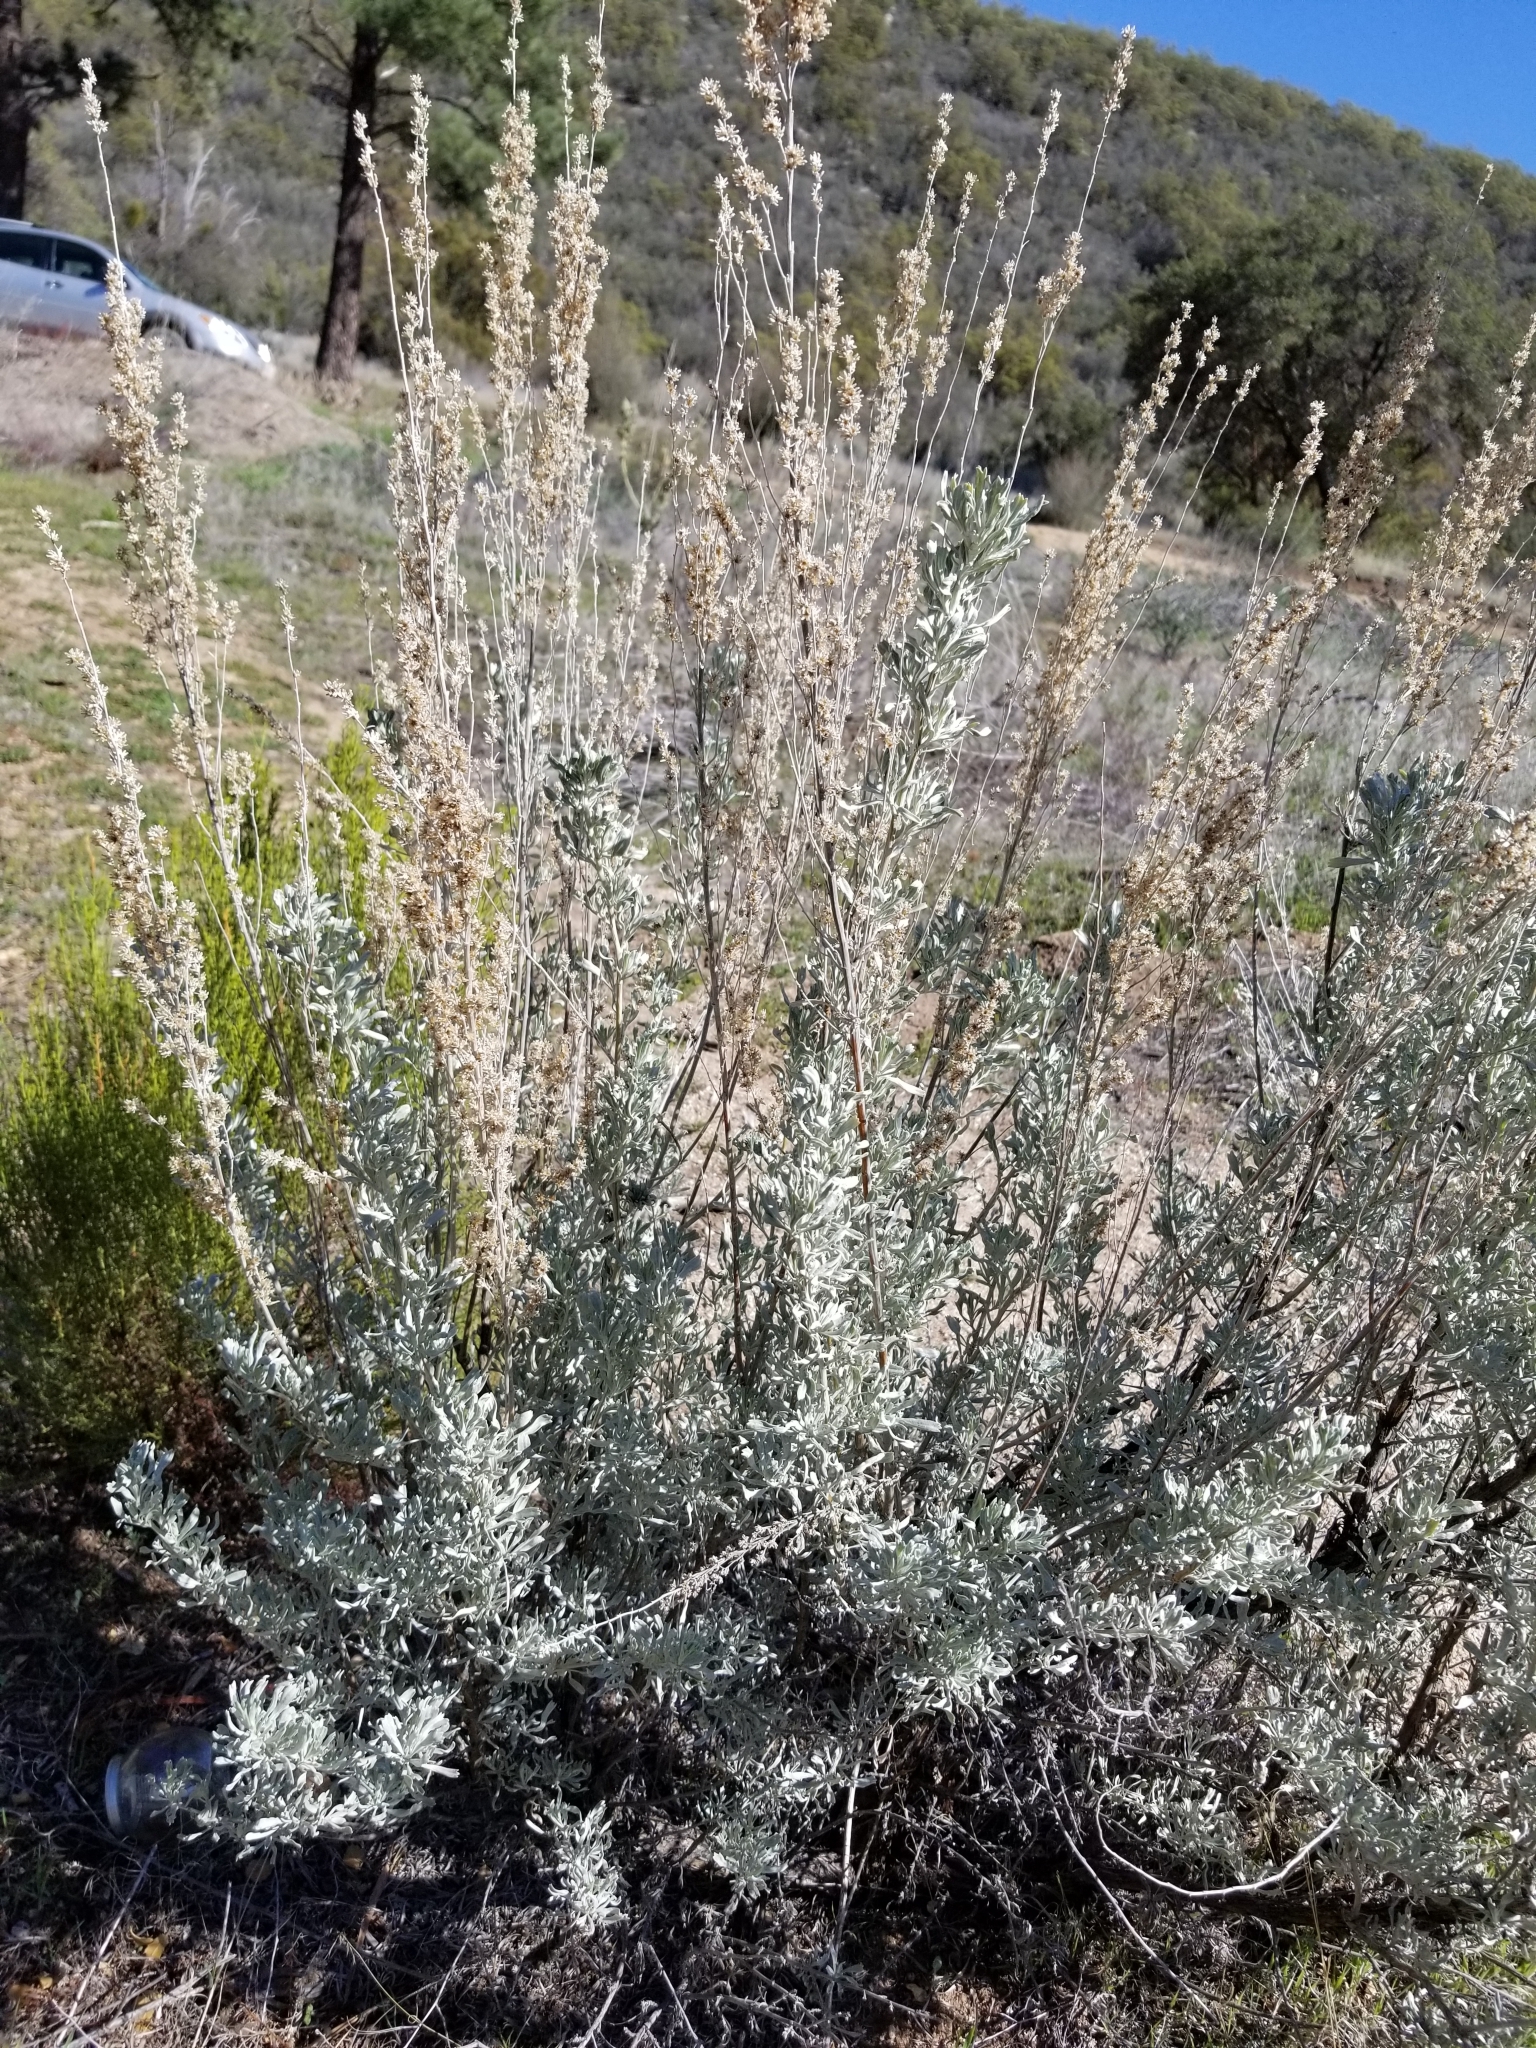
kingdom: Plantae
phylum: Tracheophyta
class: Magnoliopsida
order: Asterales
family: Asteraceae
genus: Artemisia
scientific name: Artemisia tridentata
